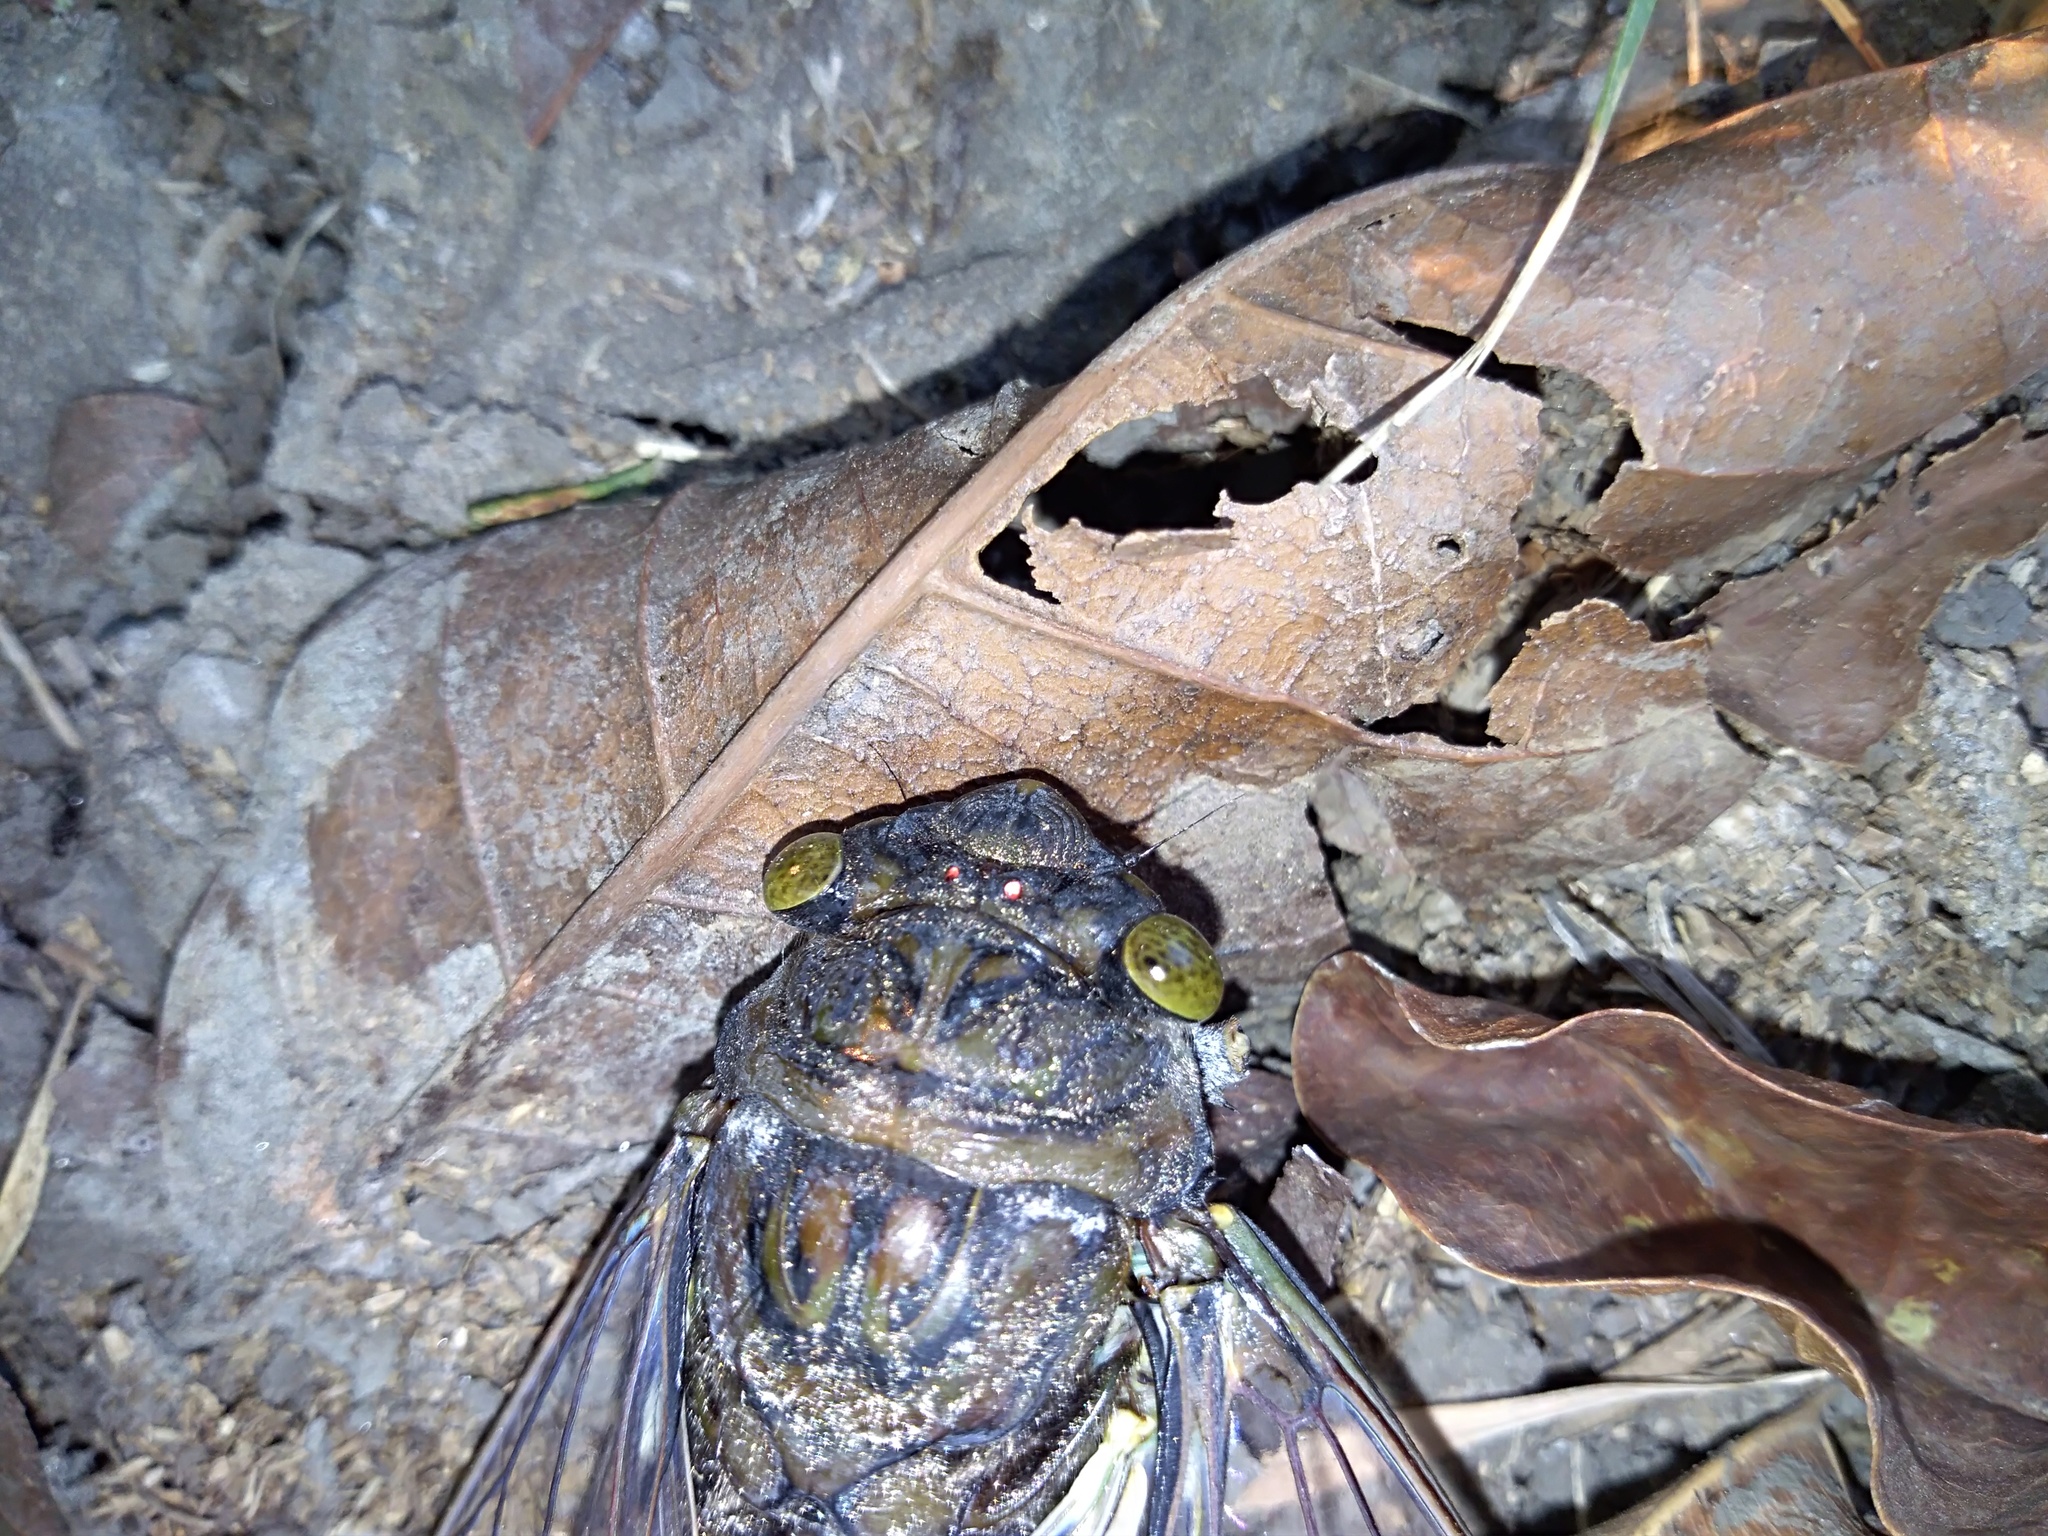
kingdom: Animalia
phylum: Arthropoda
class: Insecta
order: Hemiptera
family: Cicadidae
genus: Quesada
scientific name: Quesada gigas
